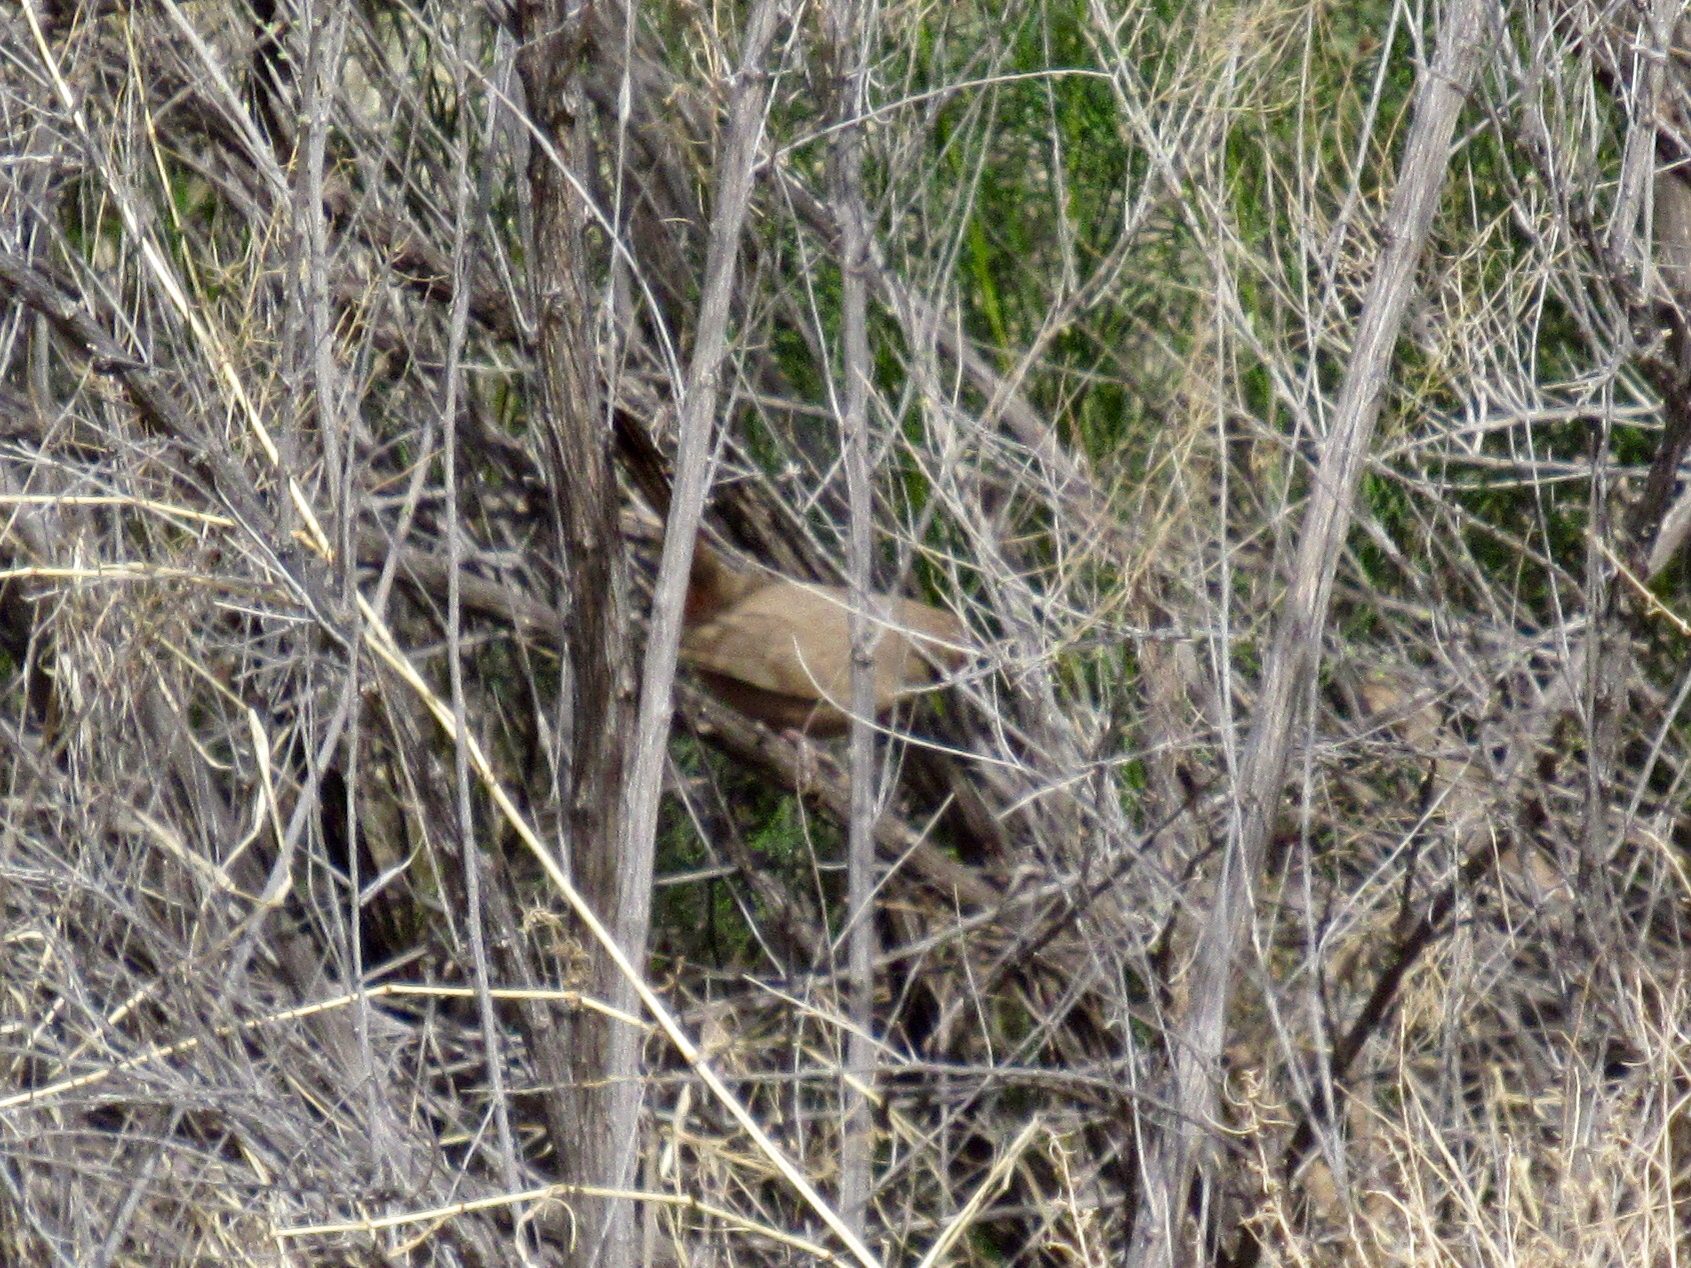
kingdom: Animalia
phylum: Chordata
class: Aves
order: Passeriformes
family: Passerellidae
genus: Melozone
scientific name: Melozone aberti
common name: Abert's towhee
